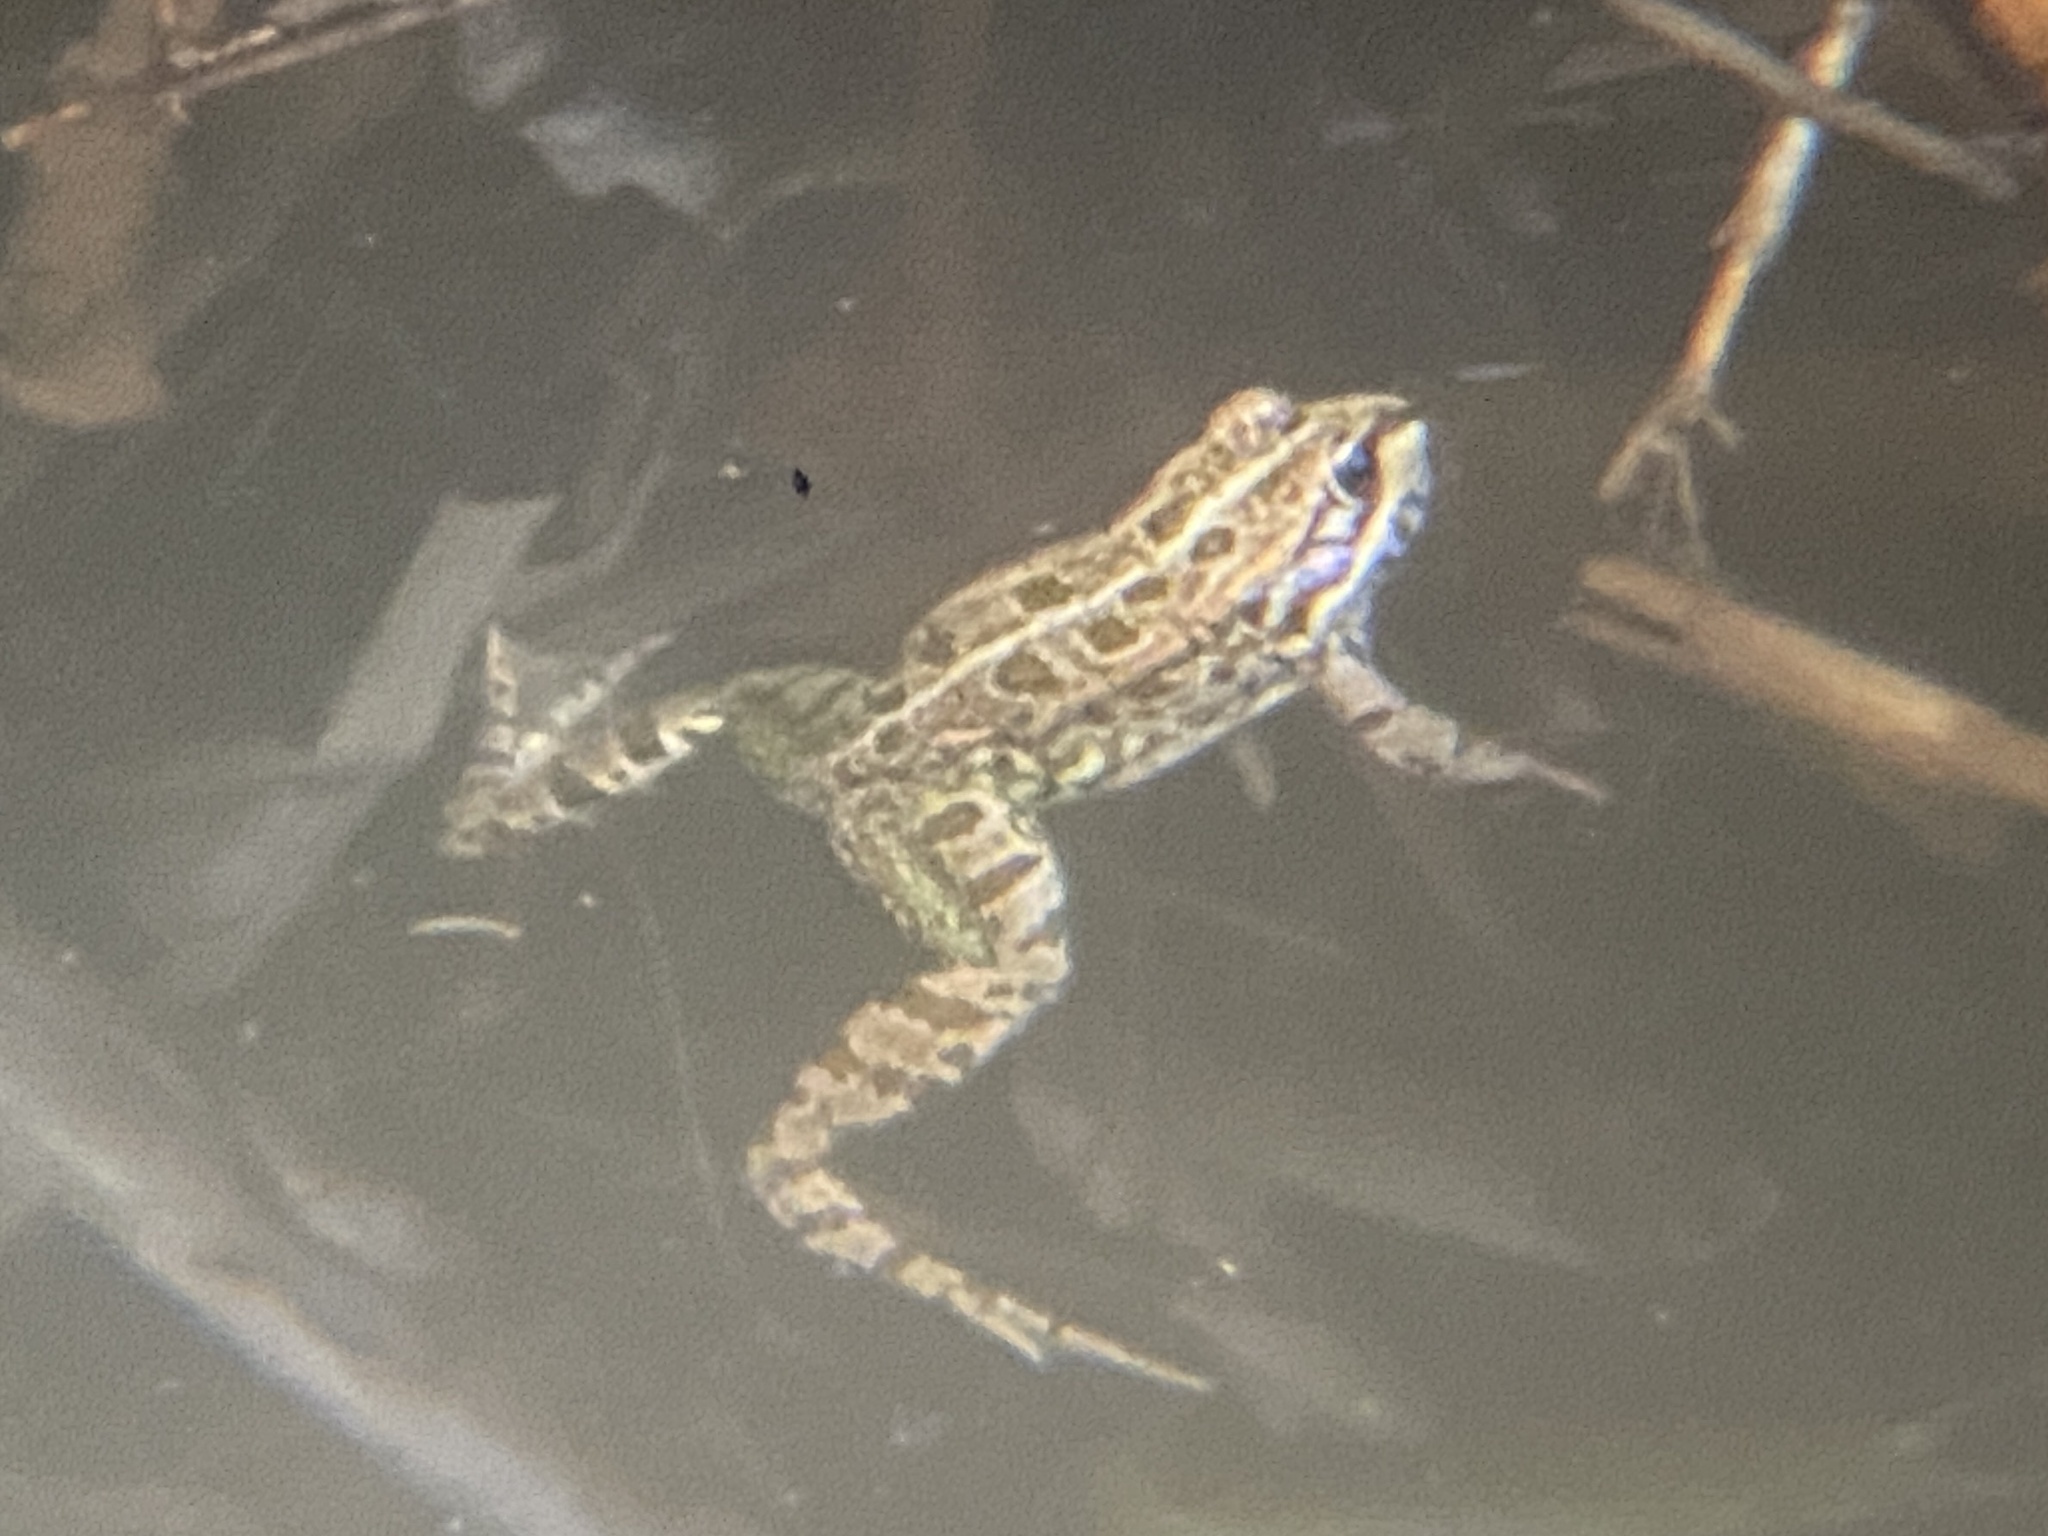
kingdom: Animalia
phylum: Chordata
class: Amphibia
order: Anura
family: Ranidae
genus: Pelophylax
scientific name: Pelophylax perezi
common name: Perez's frog
